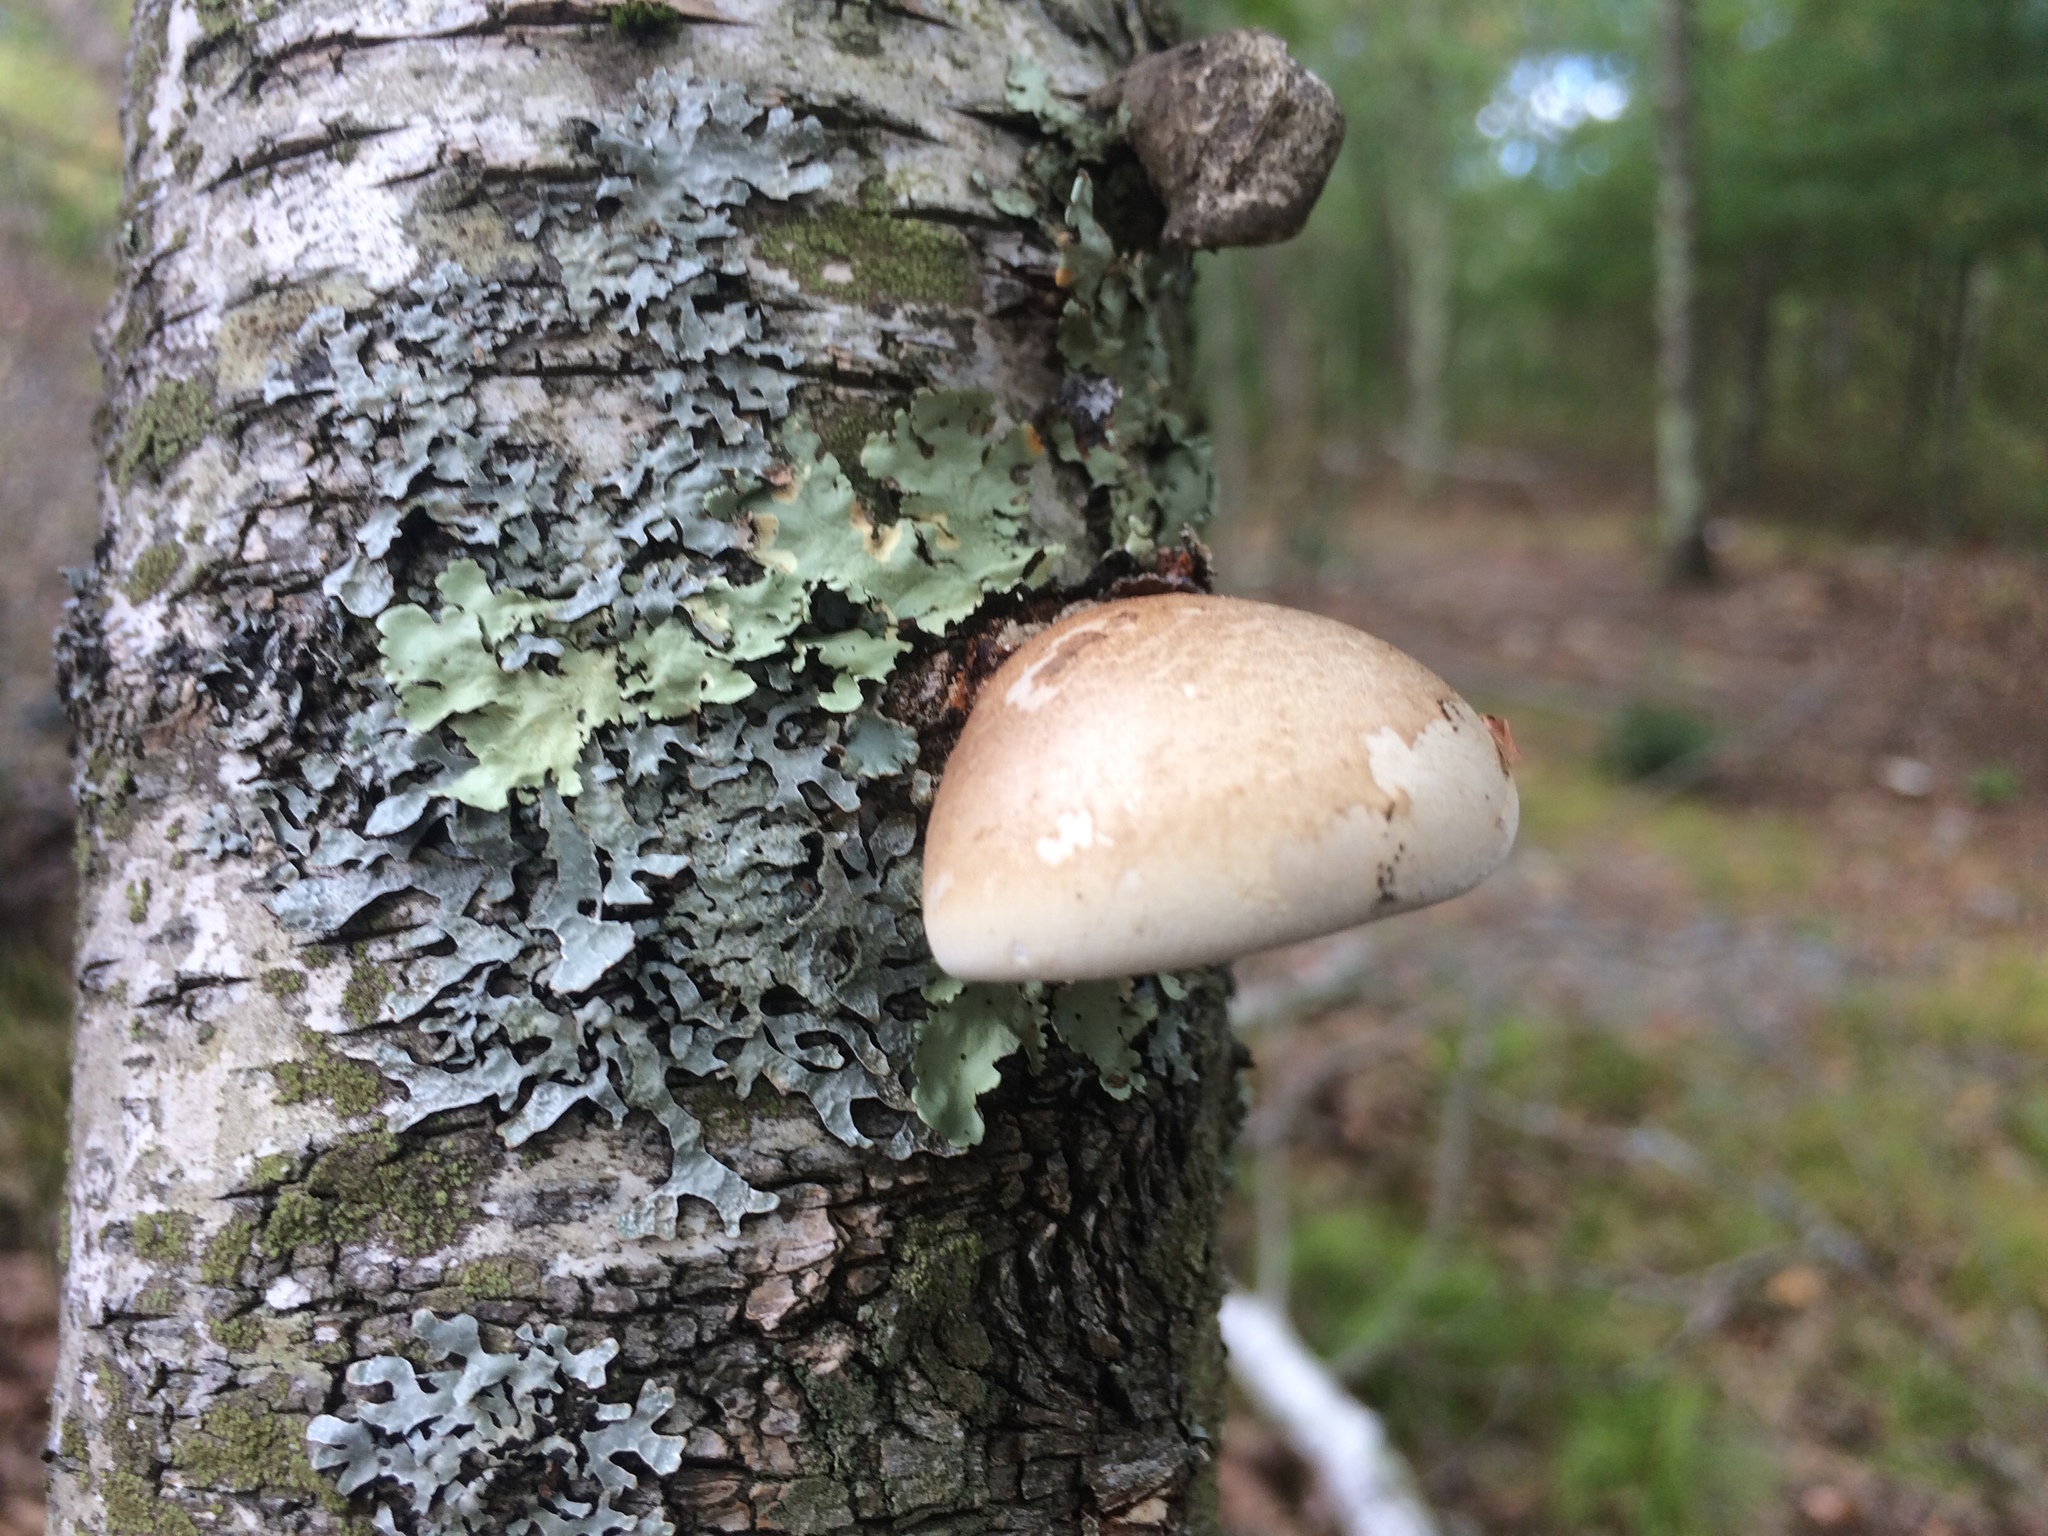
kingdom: Fungi
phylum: Basidiomycota
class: Agaricomycetes
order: Polyporales
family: Fomitopsidaceae
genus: Fomitopsis
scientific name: Fomitopsis betulina
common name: Birch polypore
